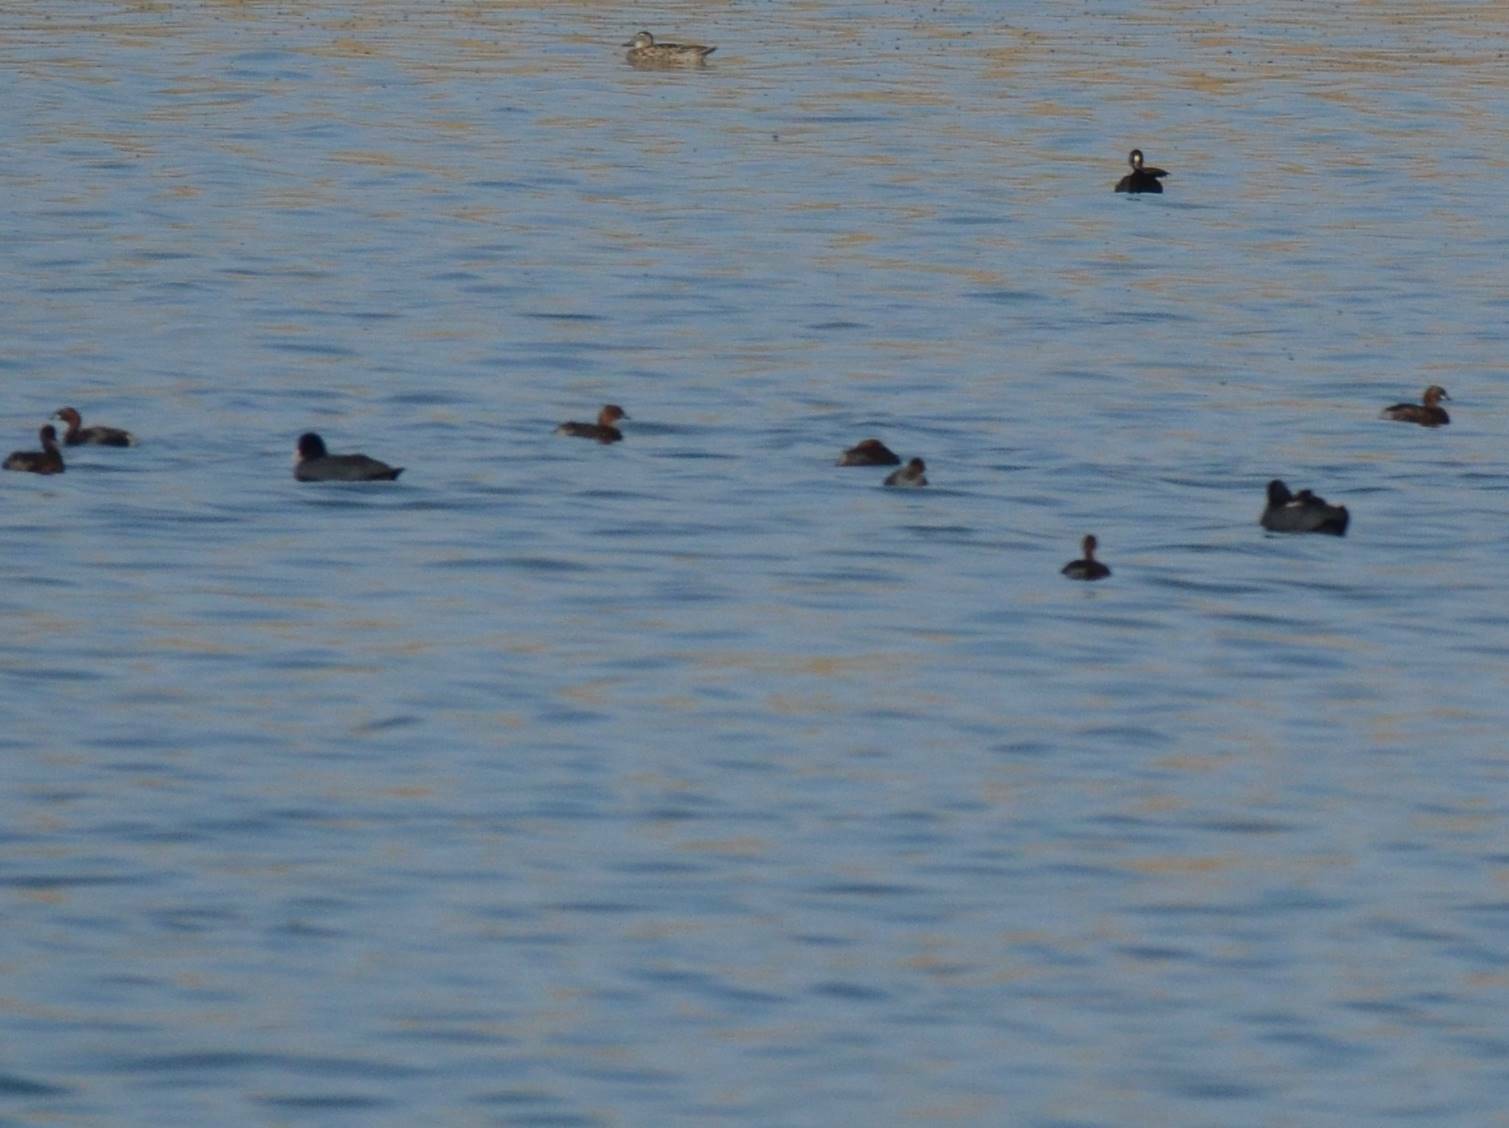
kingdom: Animalia
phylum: Chordata
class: Aves
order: Gruiformes
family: Rallidae
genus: Fulica
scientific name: Fulica atra
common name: Eurasian coot
